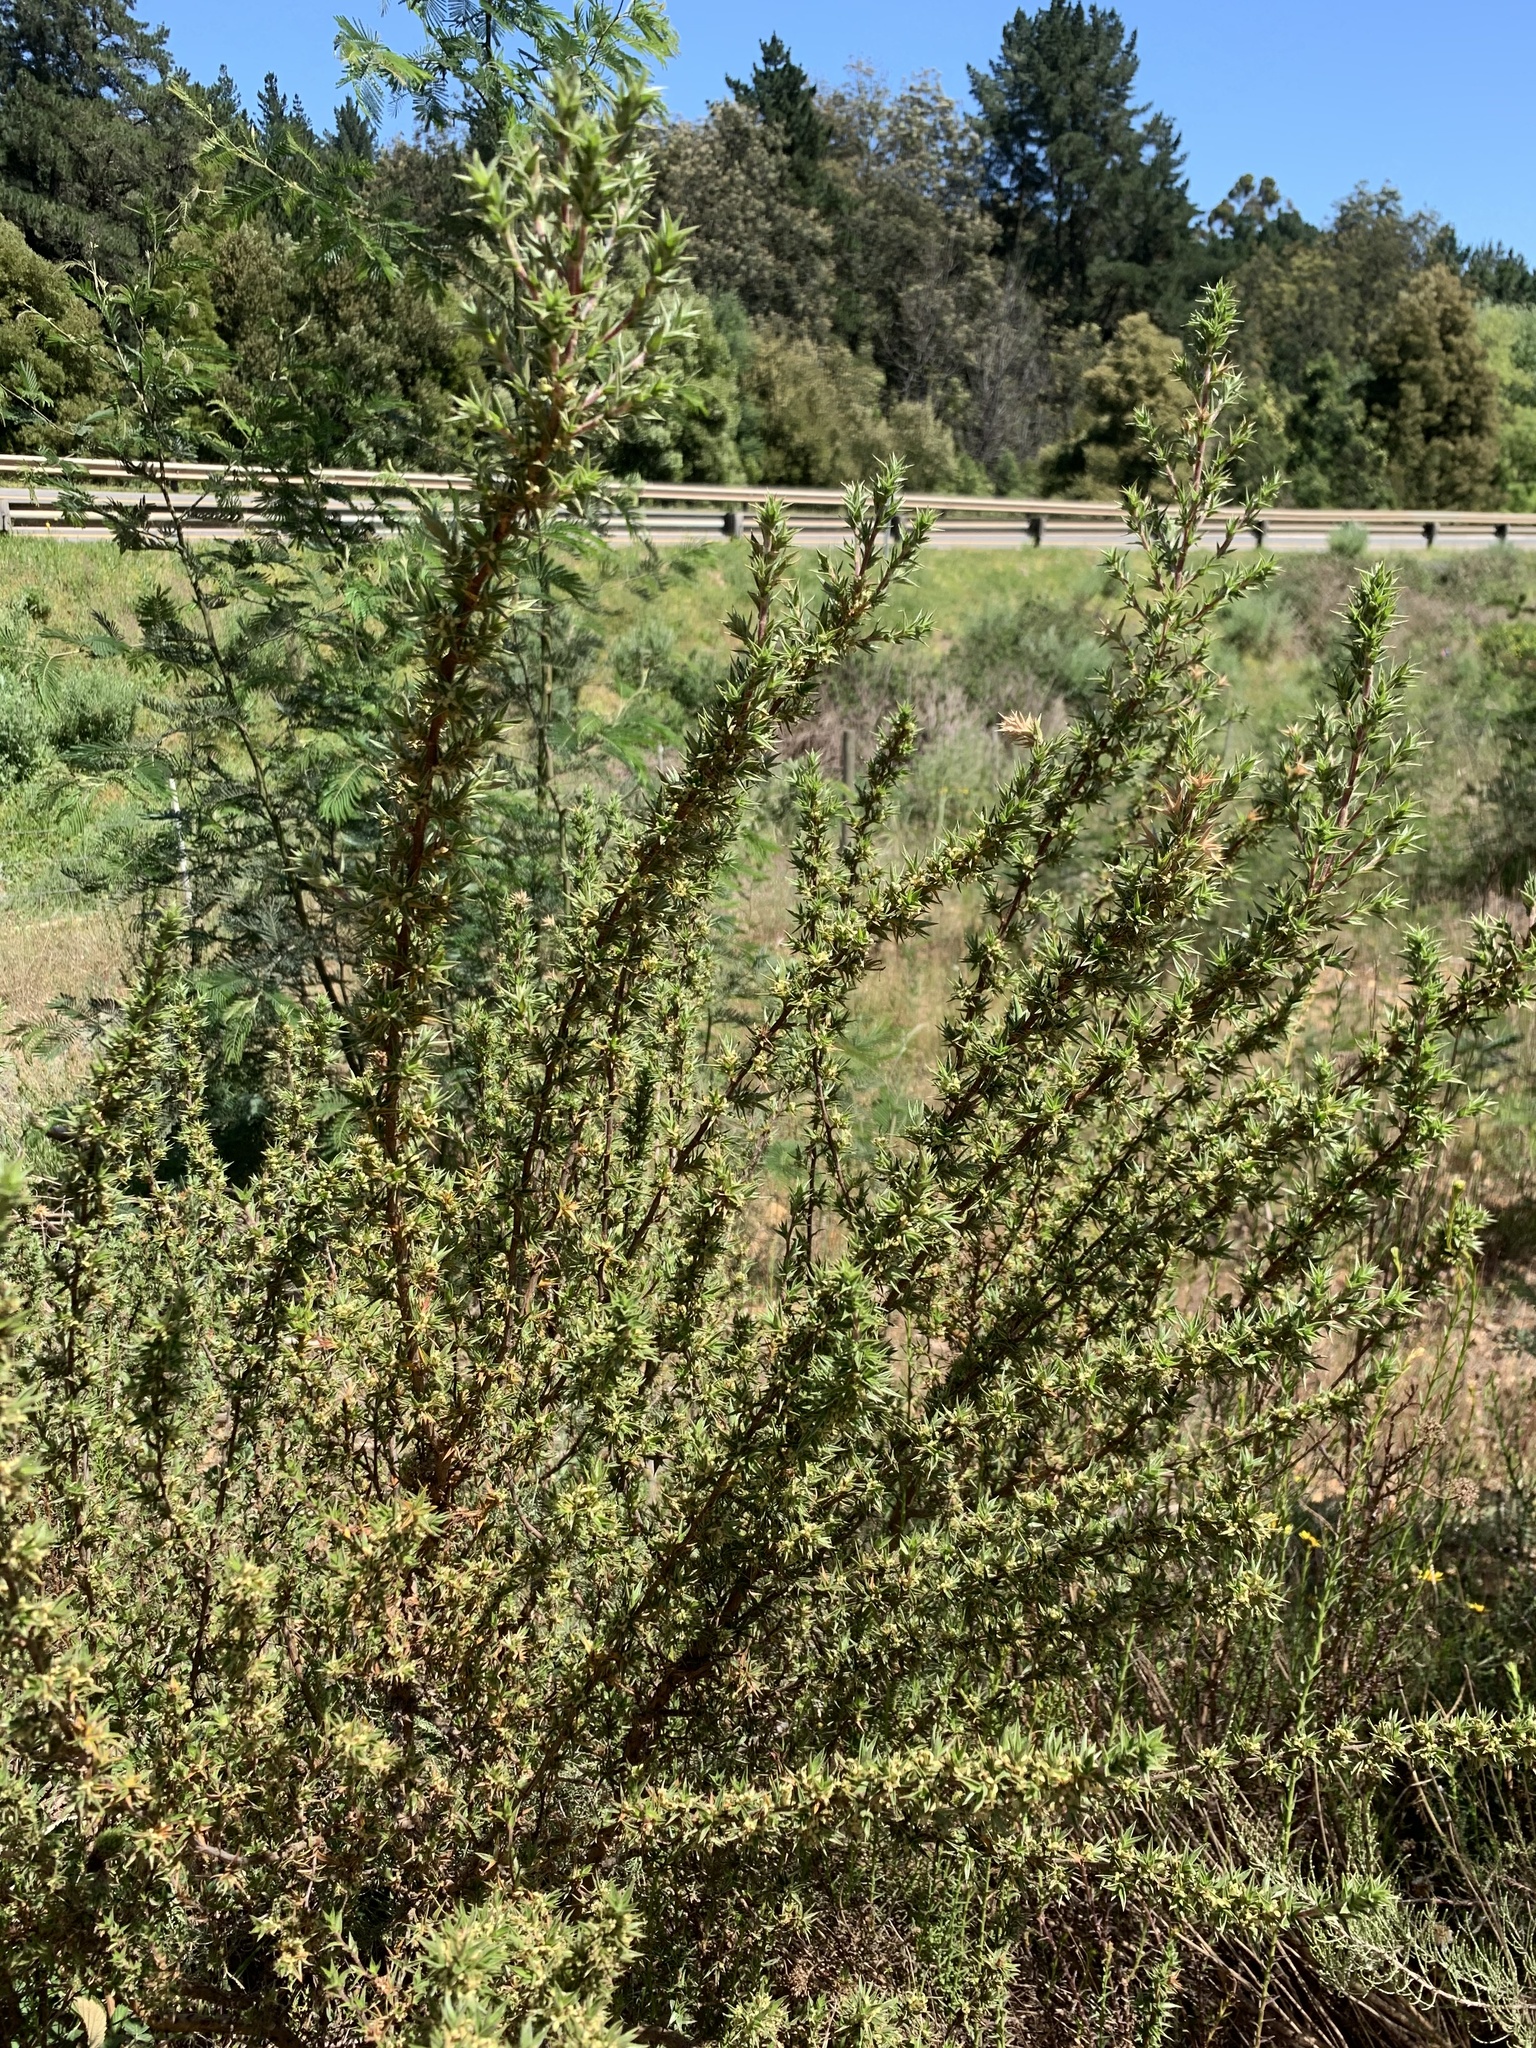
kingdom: Plantae
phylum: Tracheophyta
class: Magnoliopsida
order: Rosales
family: Rosaceae
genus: Cliffortia
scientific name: Cliffortia ruscifolia
